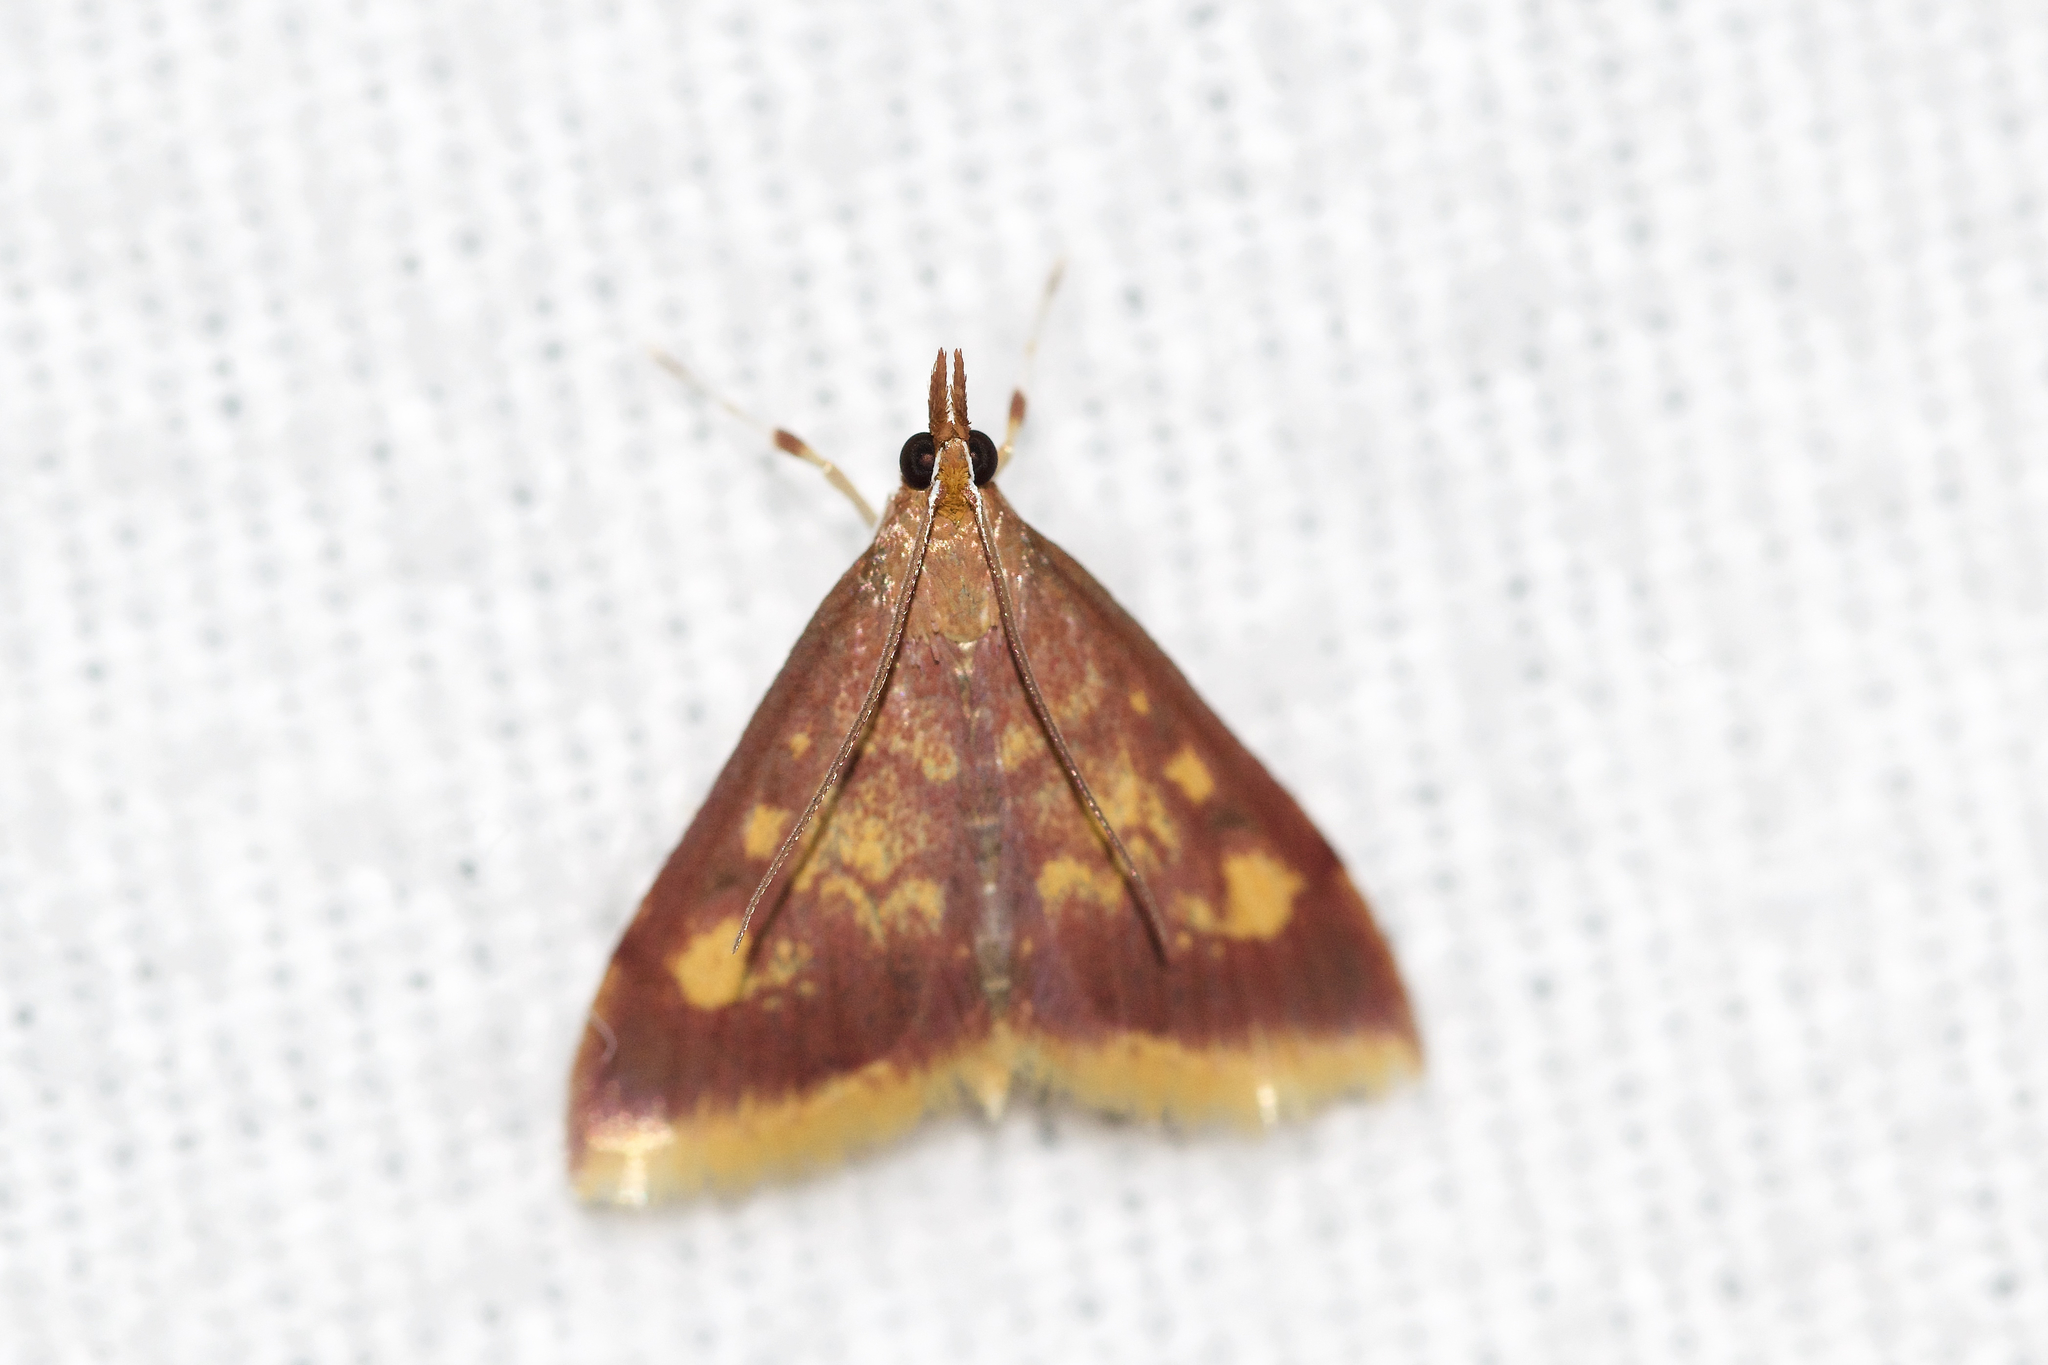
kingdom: Animalia
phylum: Arthropoda
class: Insecta
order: Lepidoptera
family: Crambidae
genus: Pyrausta
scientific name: Pyrausta acrionalis
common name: Mint-loving pyrausta moth
